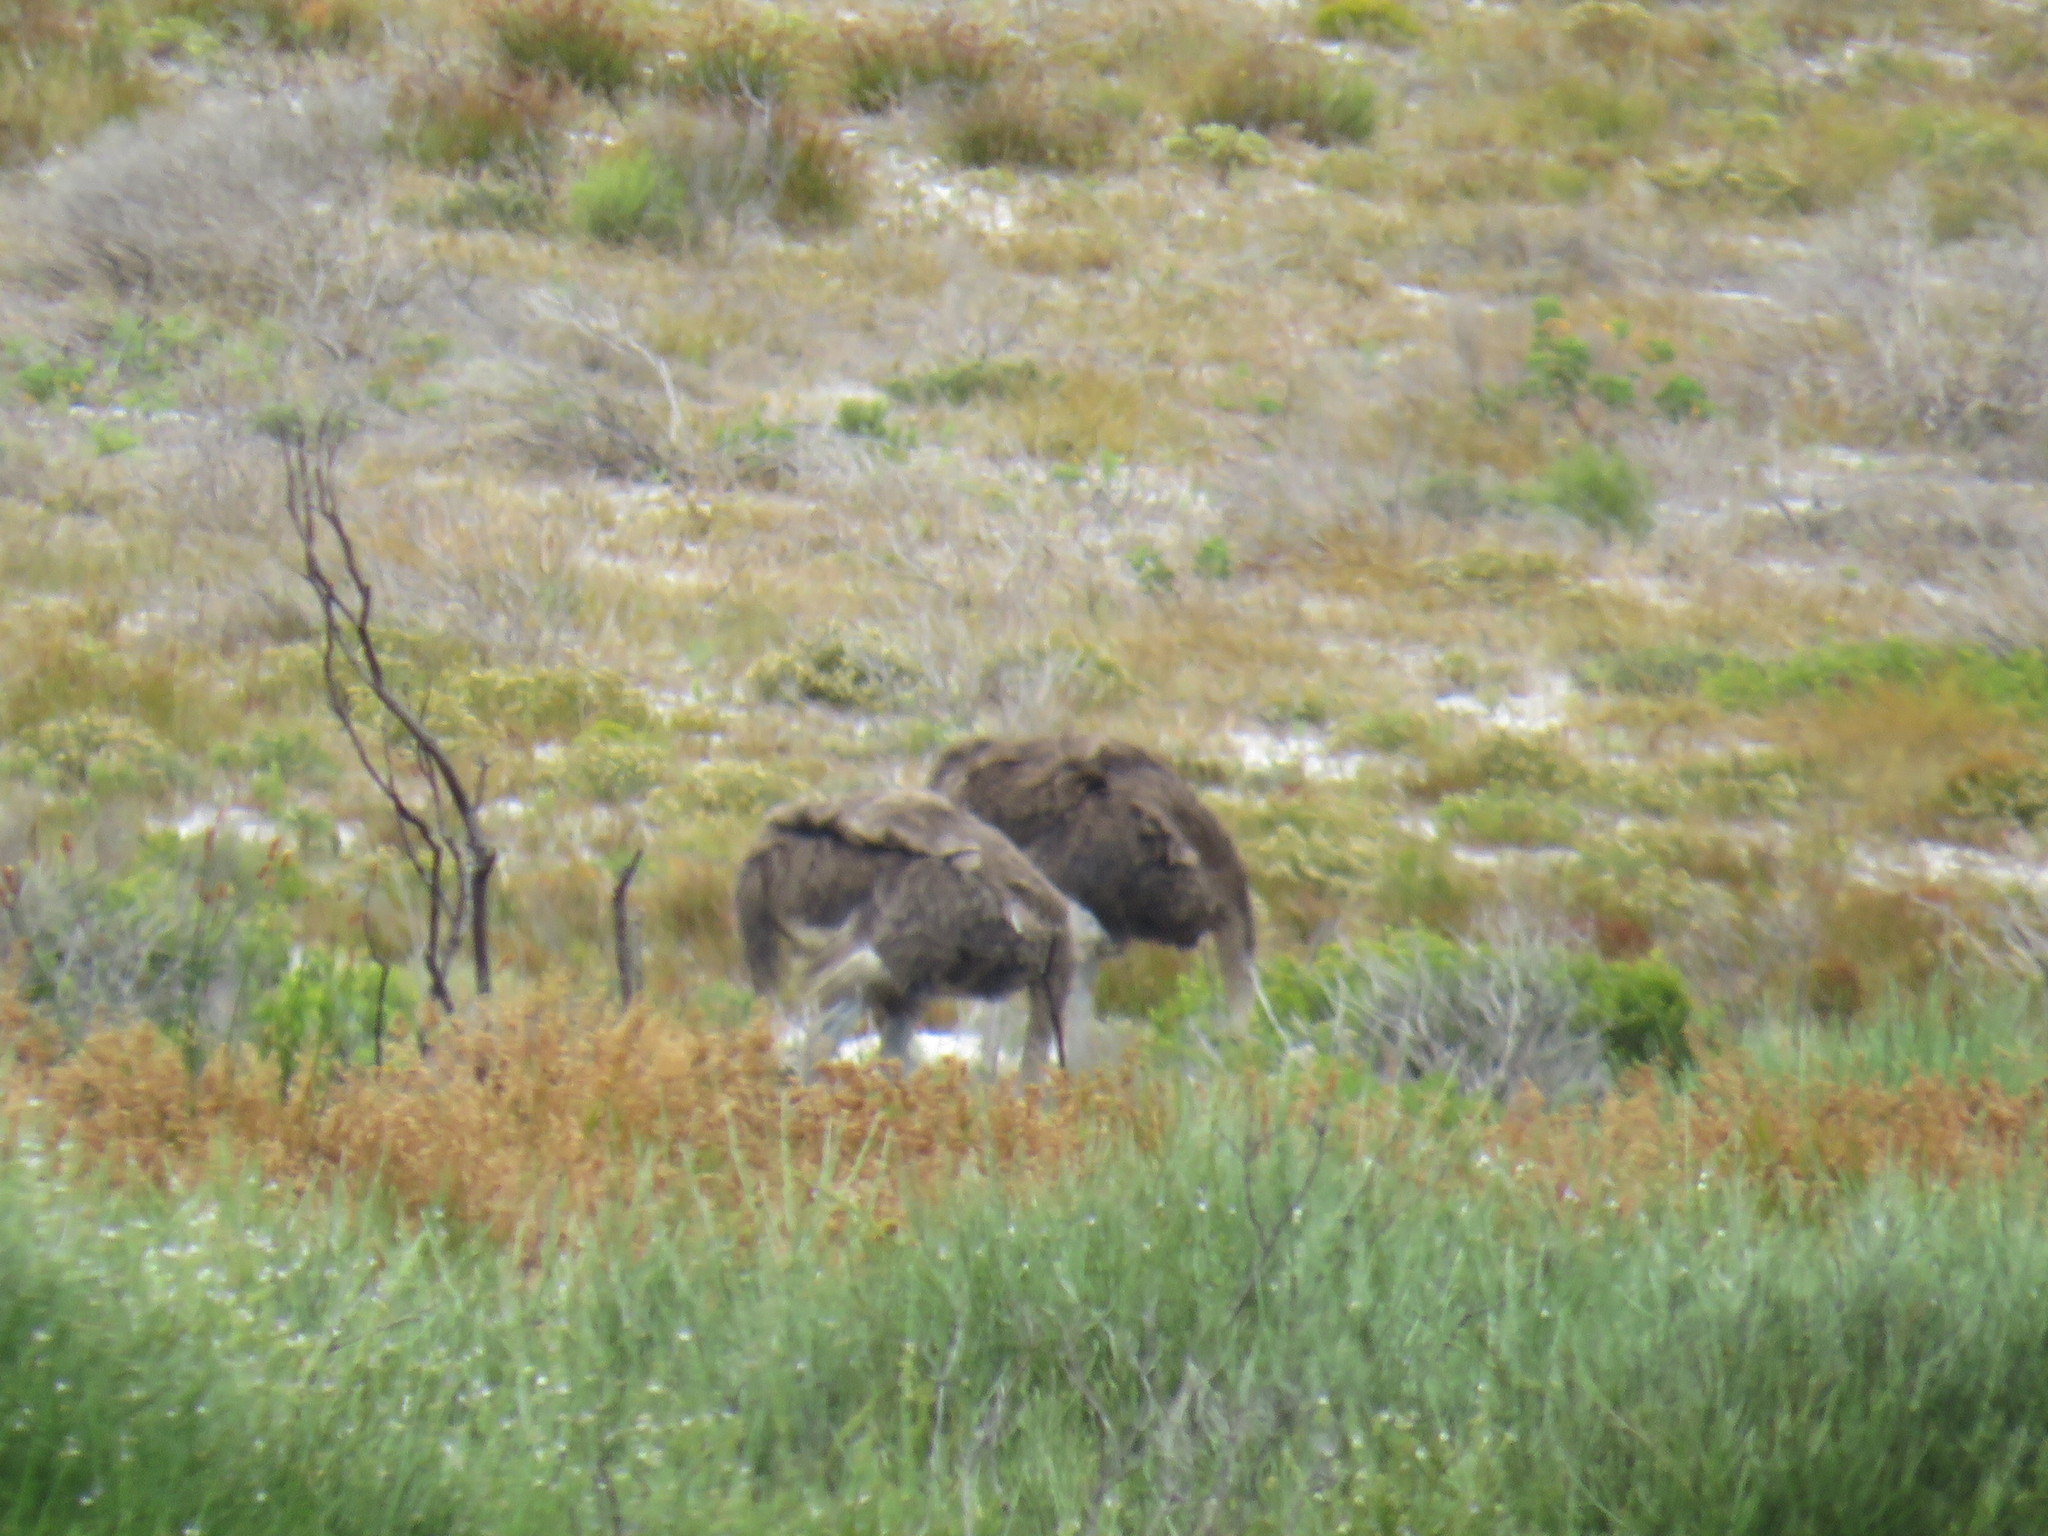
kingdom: Animalia
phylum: Chordata
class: Aves
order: Struthioniformes
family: Struthionidae
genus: Struthio
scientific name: Struthio camelus
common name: Common ostrich
